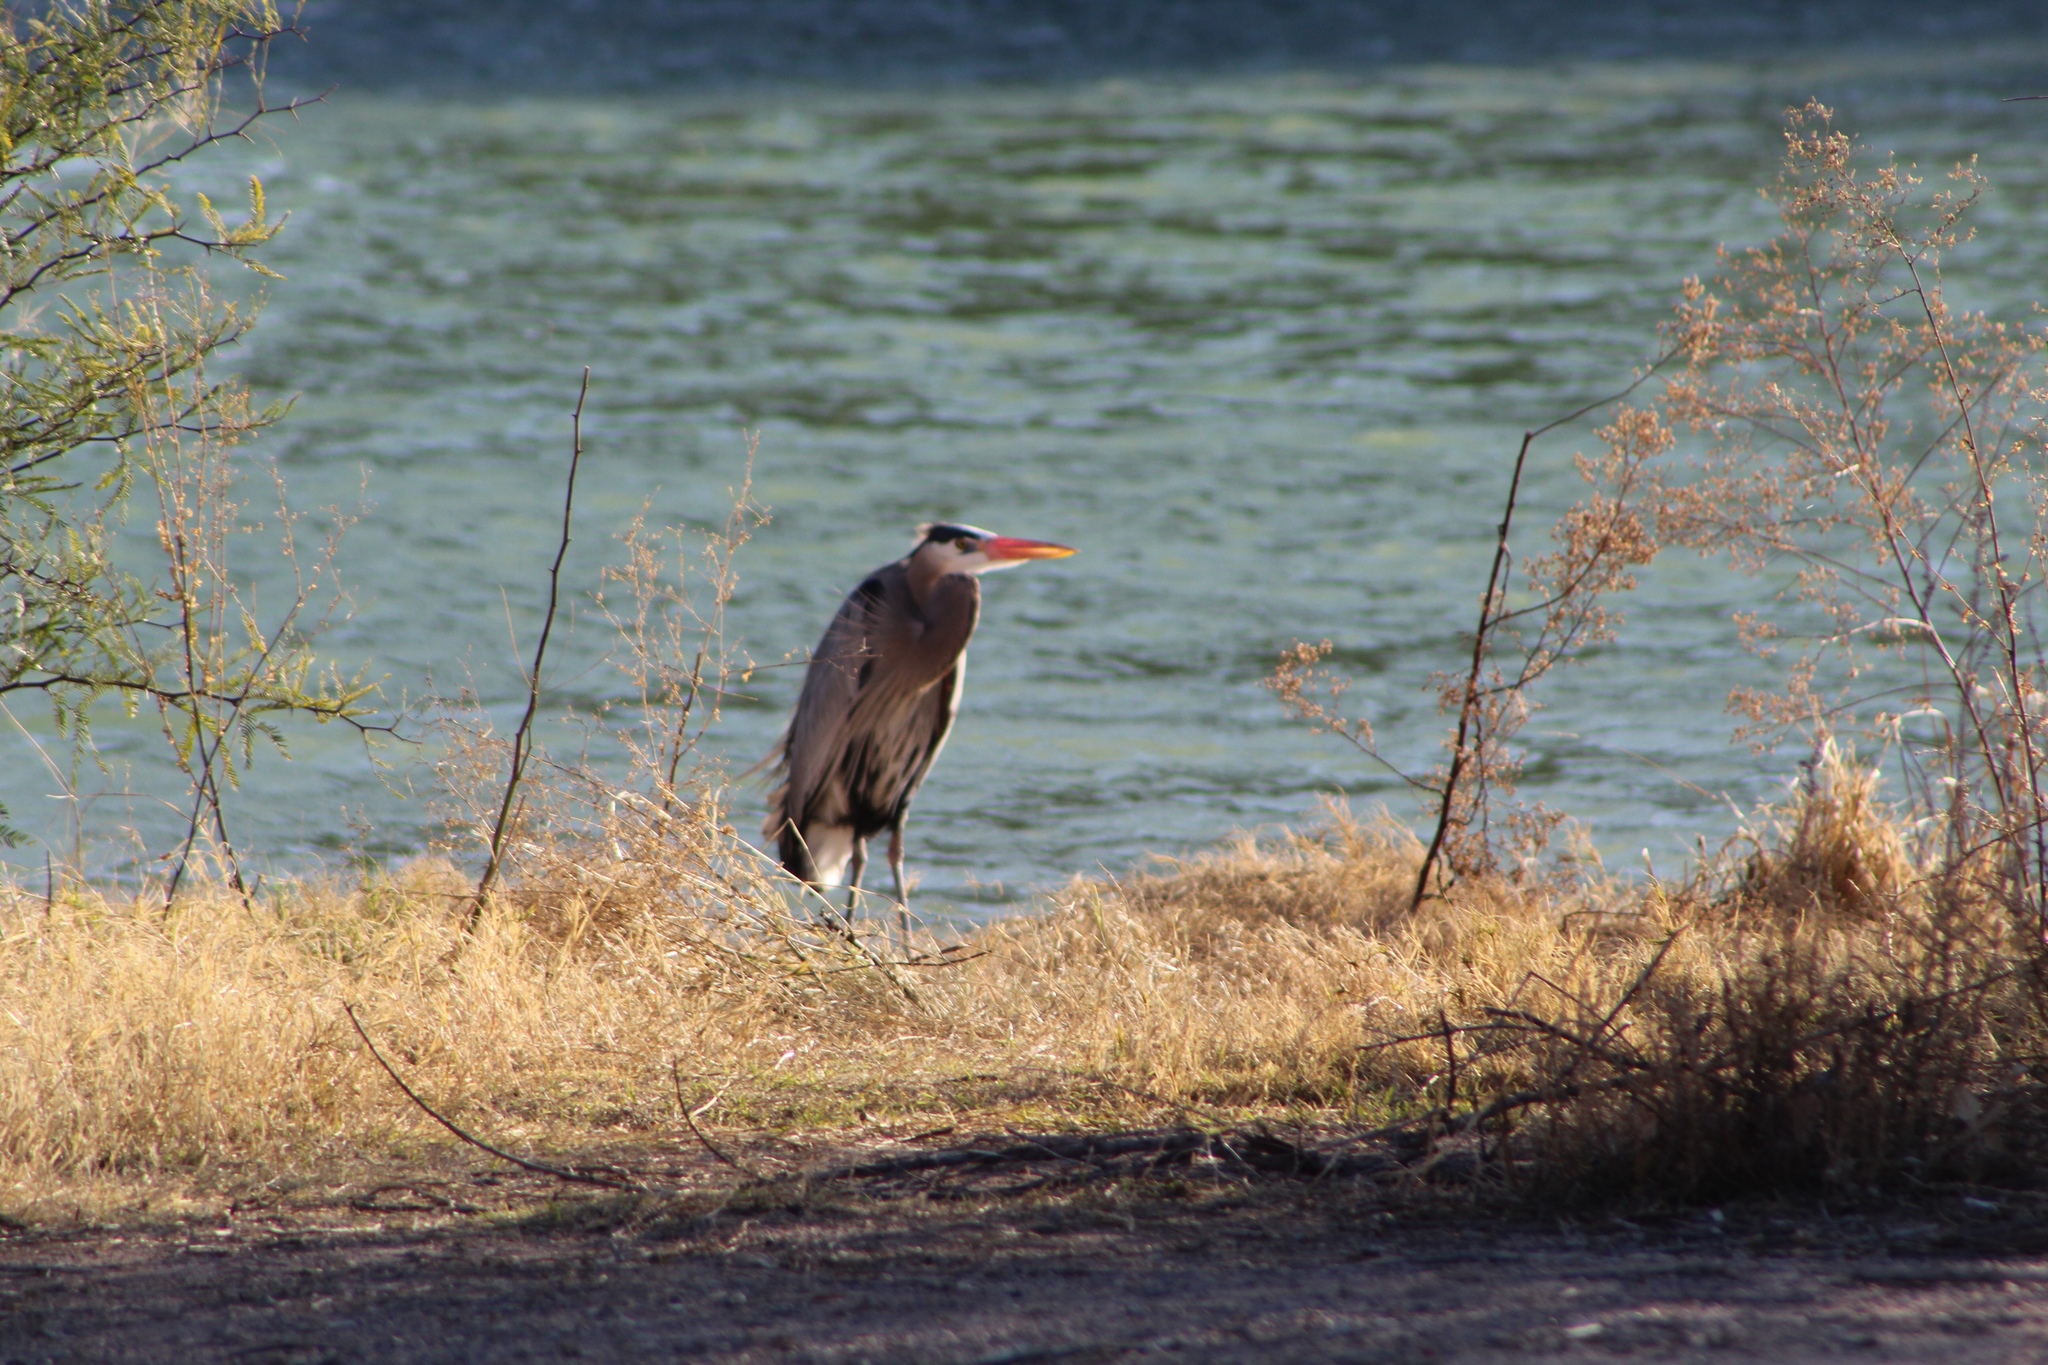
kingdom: Animalia
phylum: Chordata
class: Aves
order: Pelecaniformes
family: Ardeidae
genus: Ardea
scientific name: Ardea herodias
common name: Great blue heron
